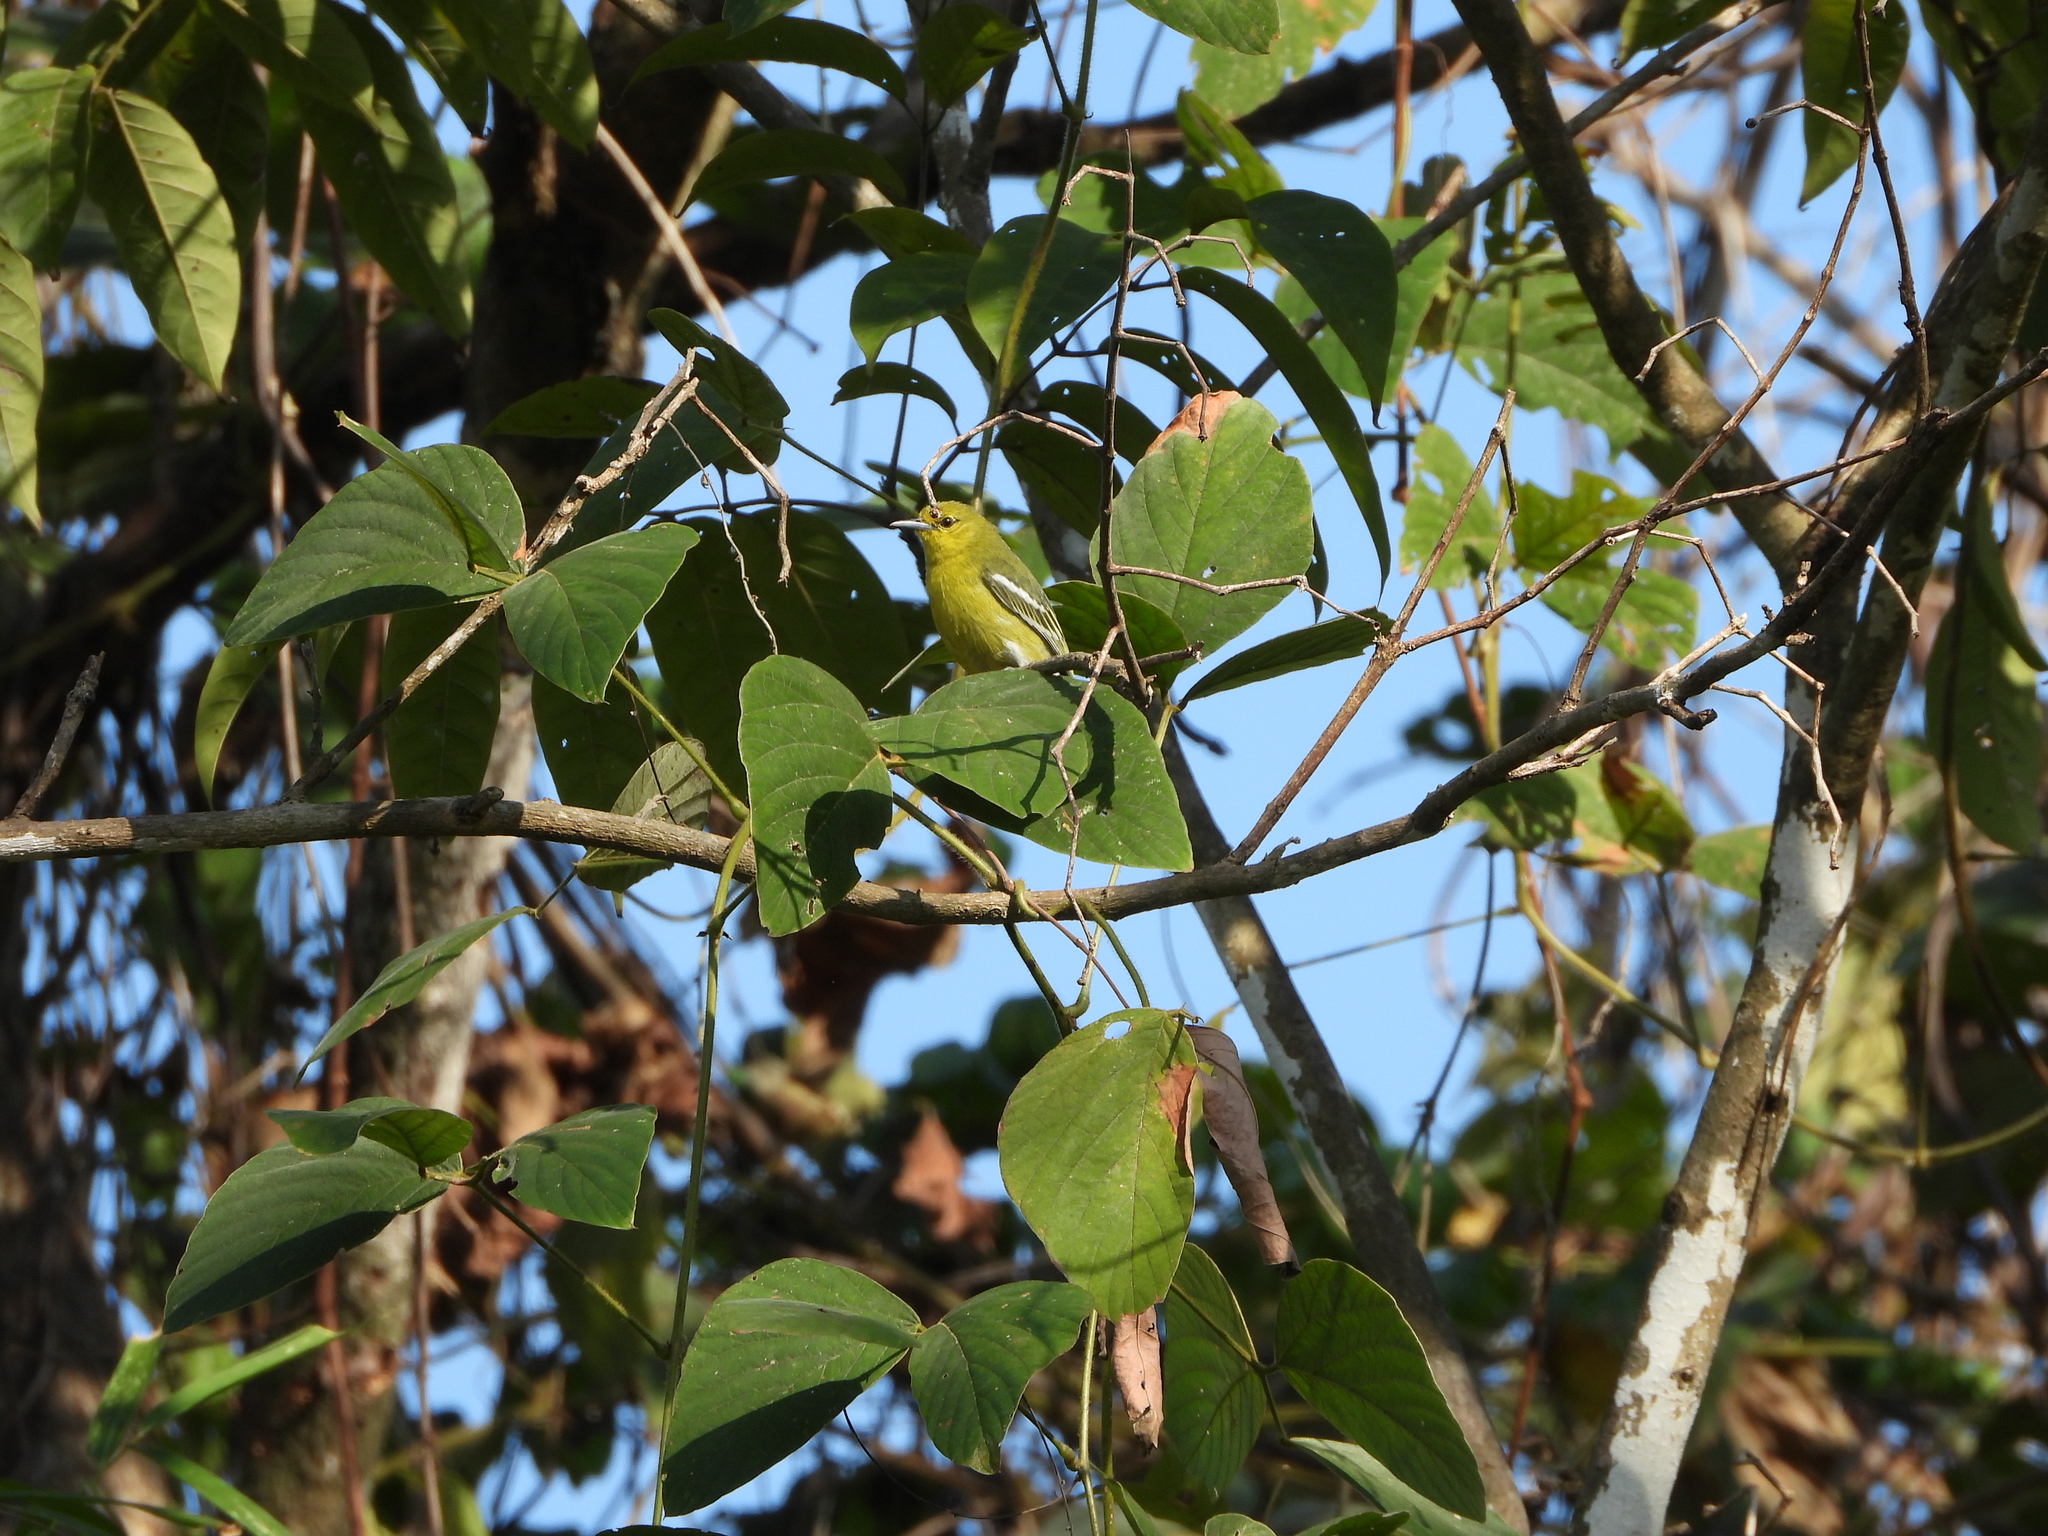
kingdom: Animalia
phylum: Chordata
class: Aves
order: Passeriformes
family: Aegithinidae
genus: Aegithina
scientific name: Aegithina tiphia
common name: Common iora
